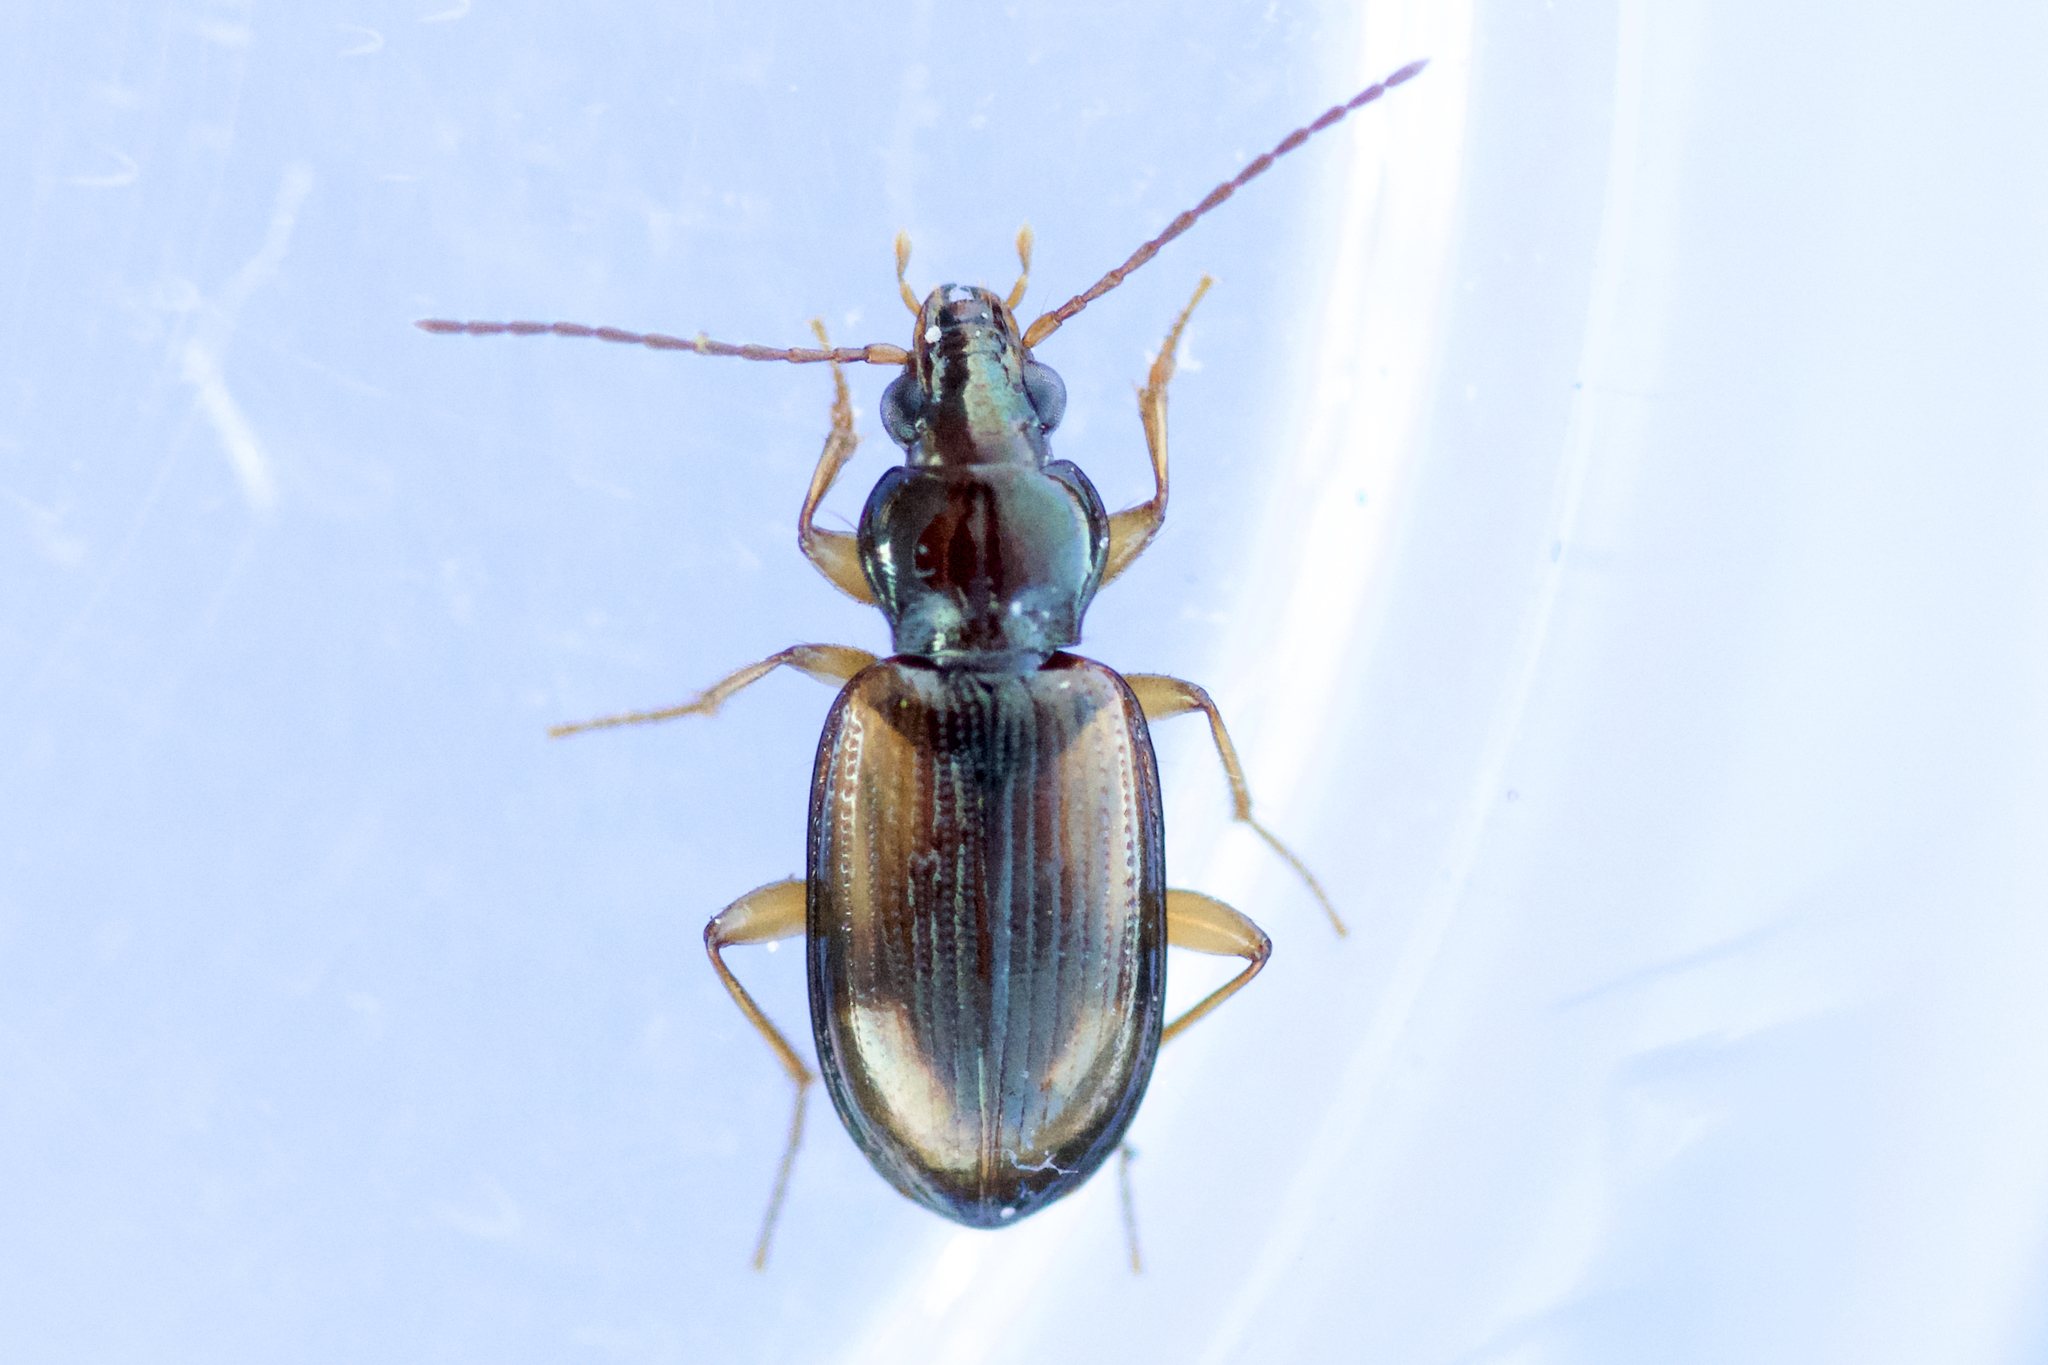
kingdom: Animalia
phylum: Arthropoda
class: Insecta
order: Coleoptera
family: Carabidae
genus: Bembidion
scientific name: Bembidion rupicola
